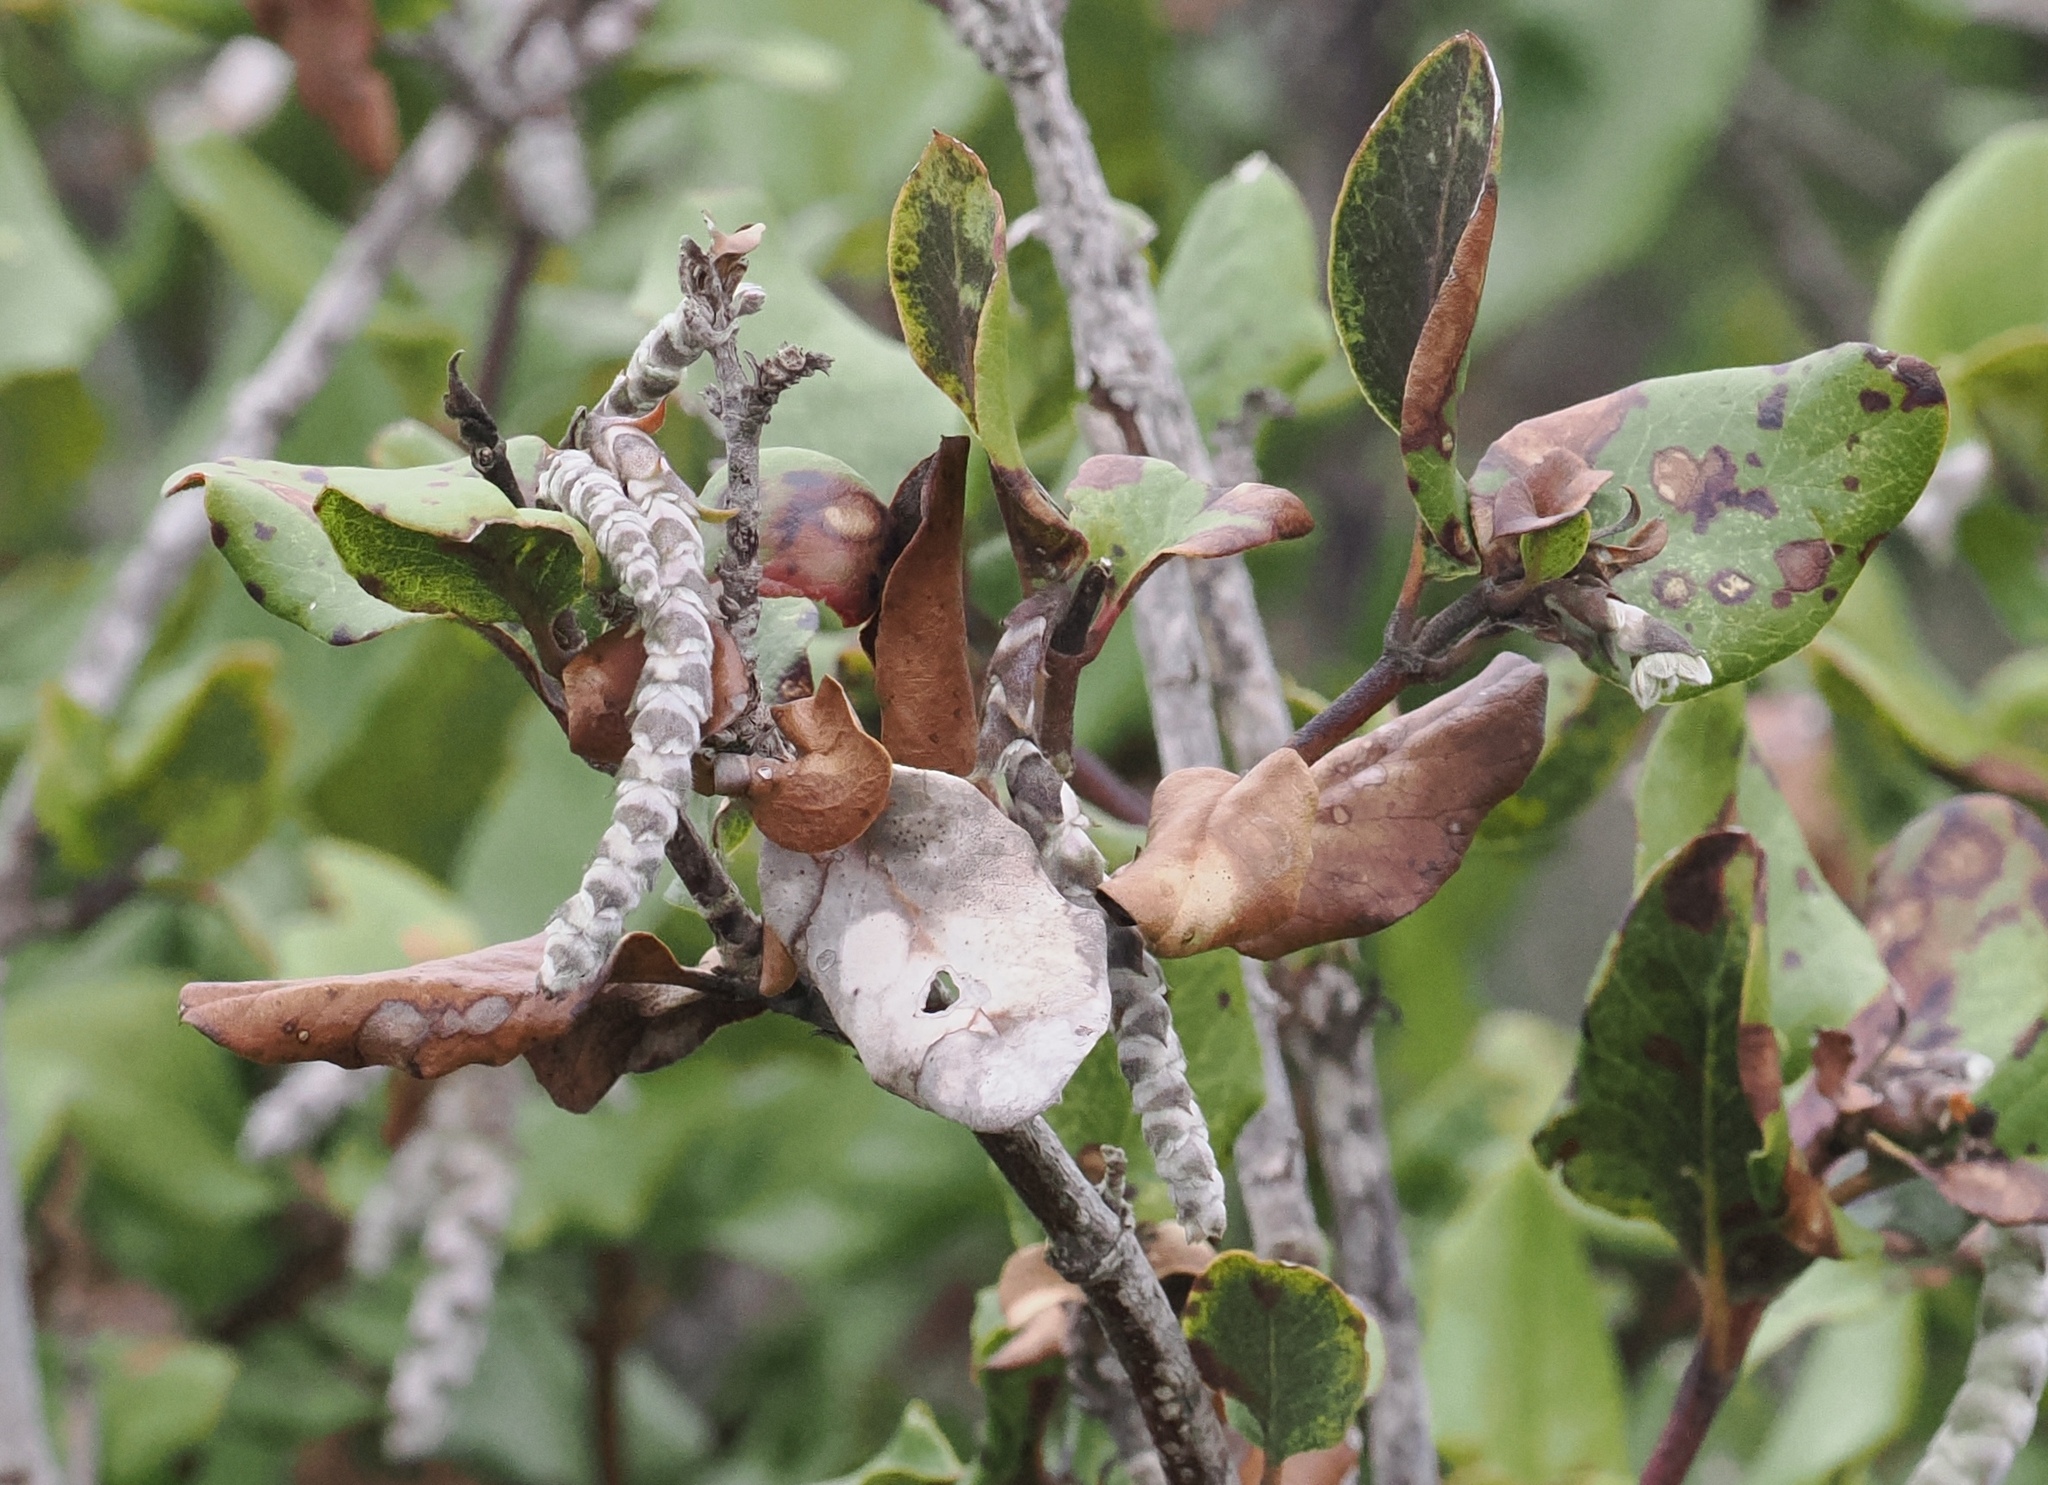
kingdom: Plantae
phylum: Tracheophyta
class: Magnoliopsida
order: Garryales
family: Garryaceae
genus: Garrya
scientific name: Garrya elliptica
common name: Silk-tassel
